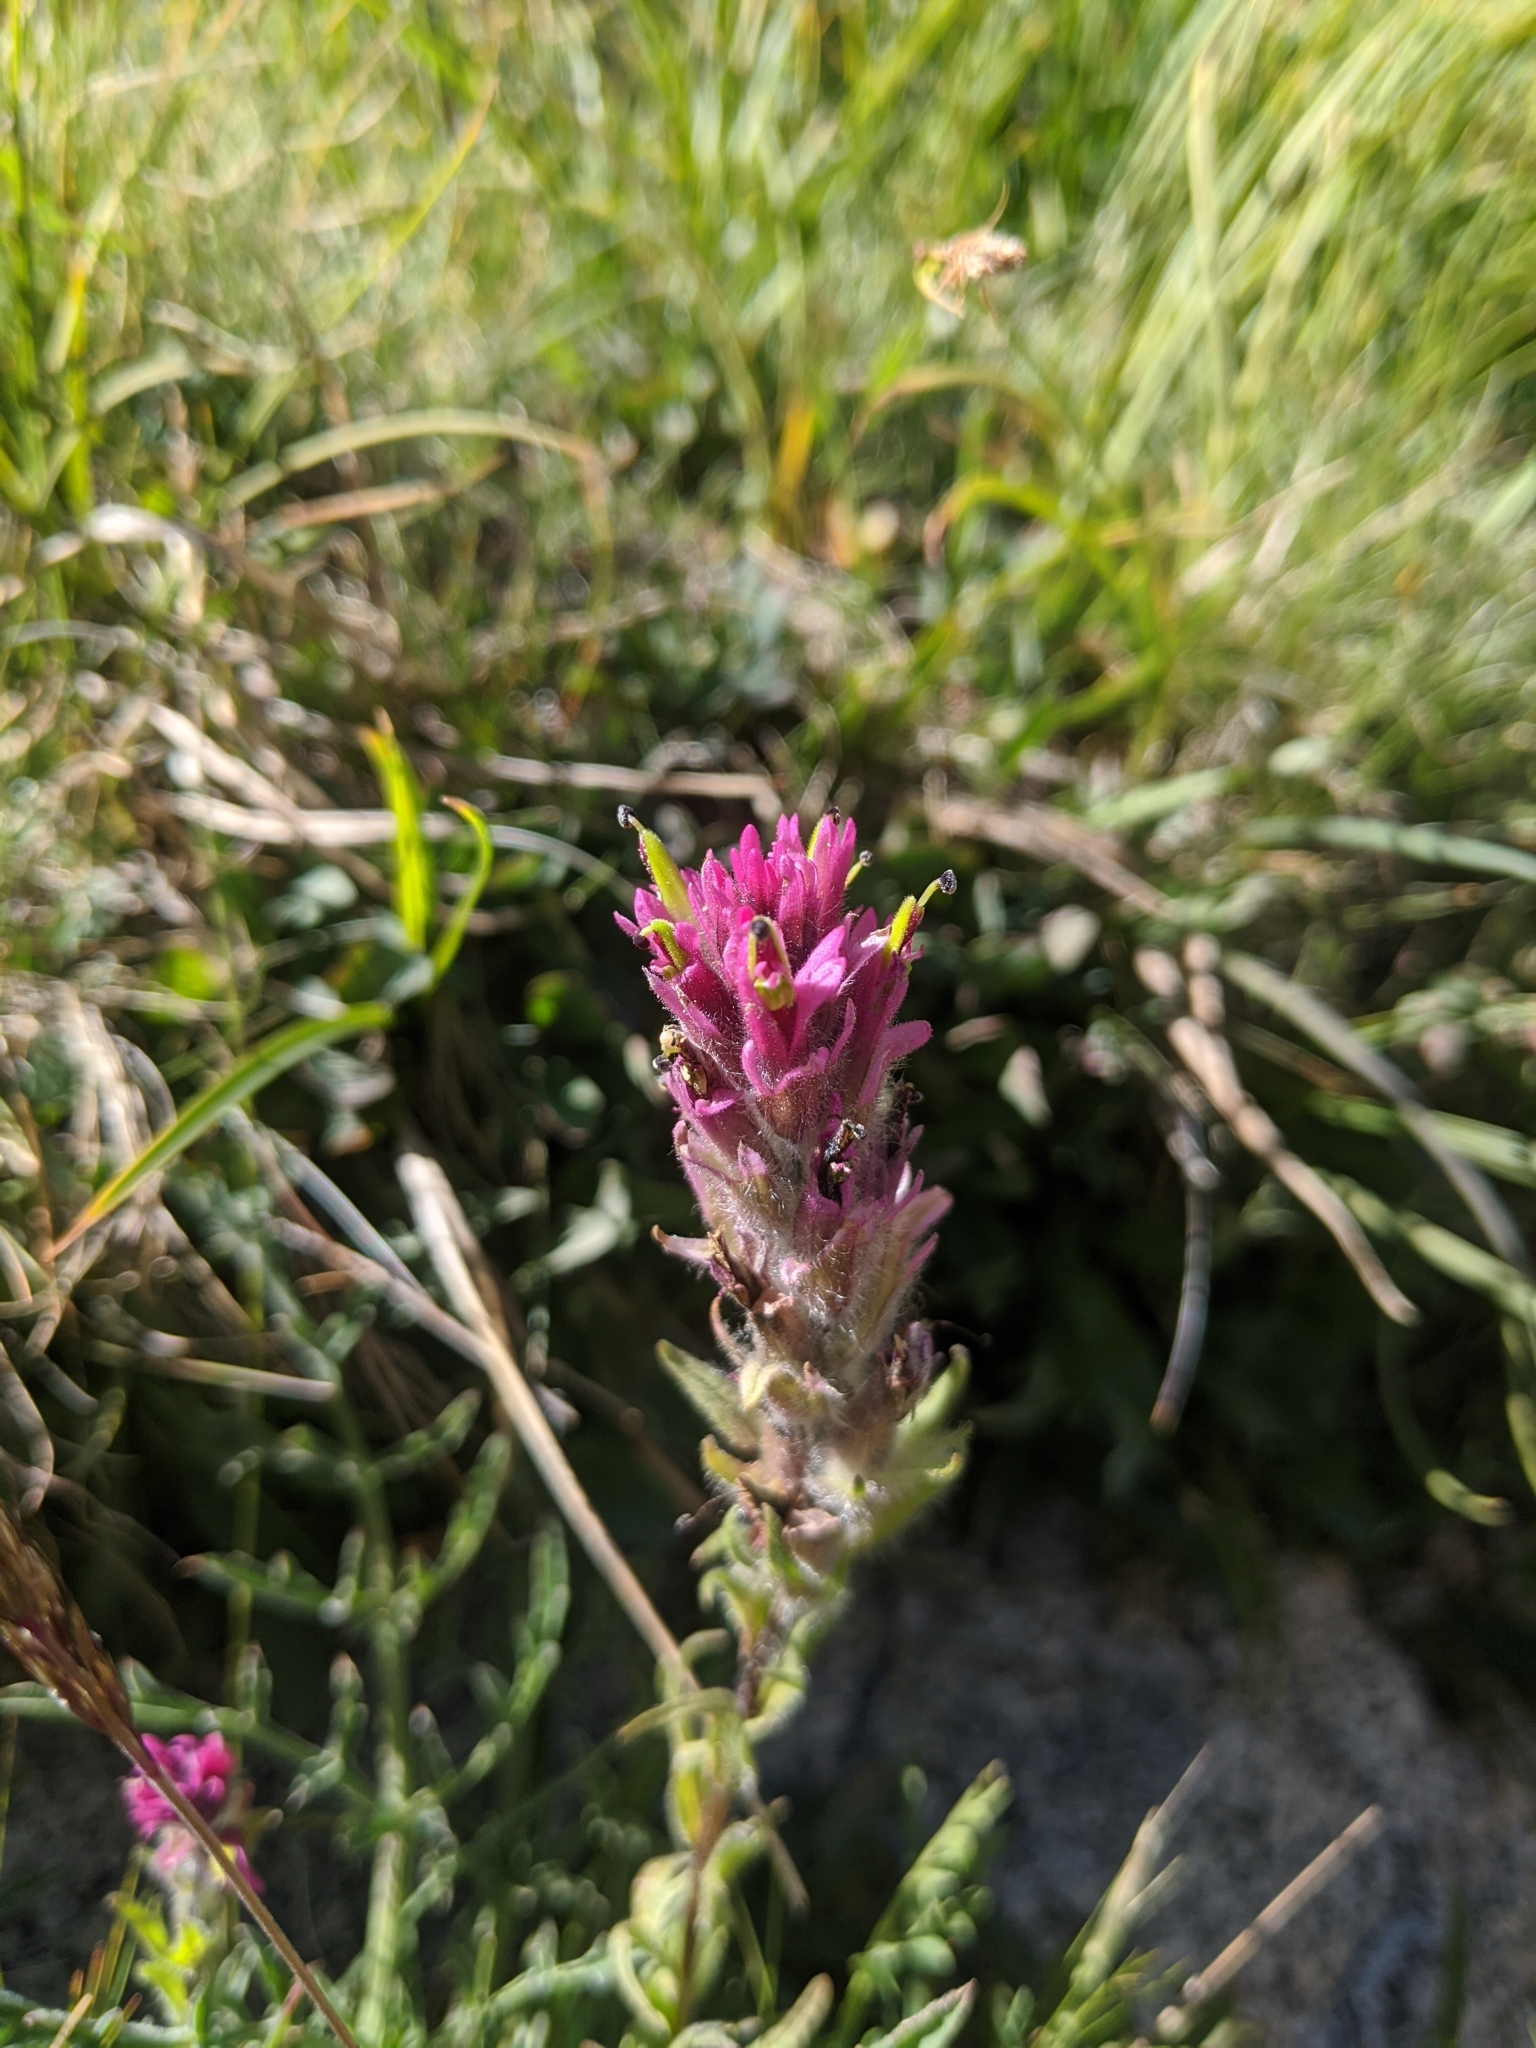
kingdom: Plantae
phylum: Tracheophyta
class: Magnoliopsida
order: Lamiales
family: Orobanchaceae
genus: Castilleja
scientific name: Castilleja lemmonii
